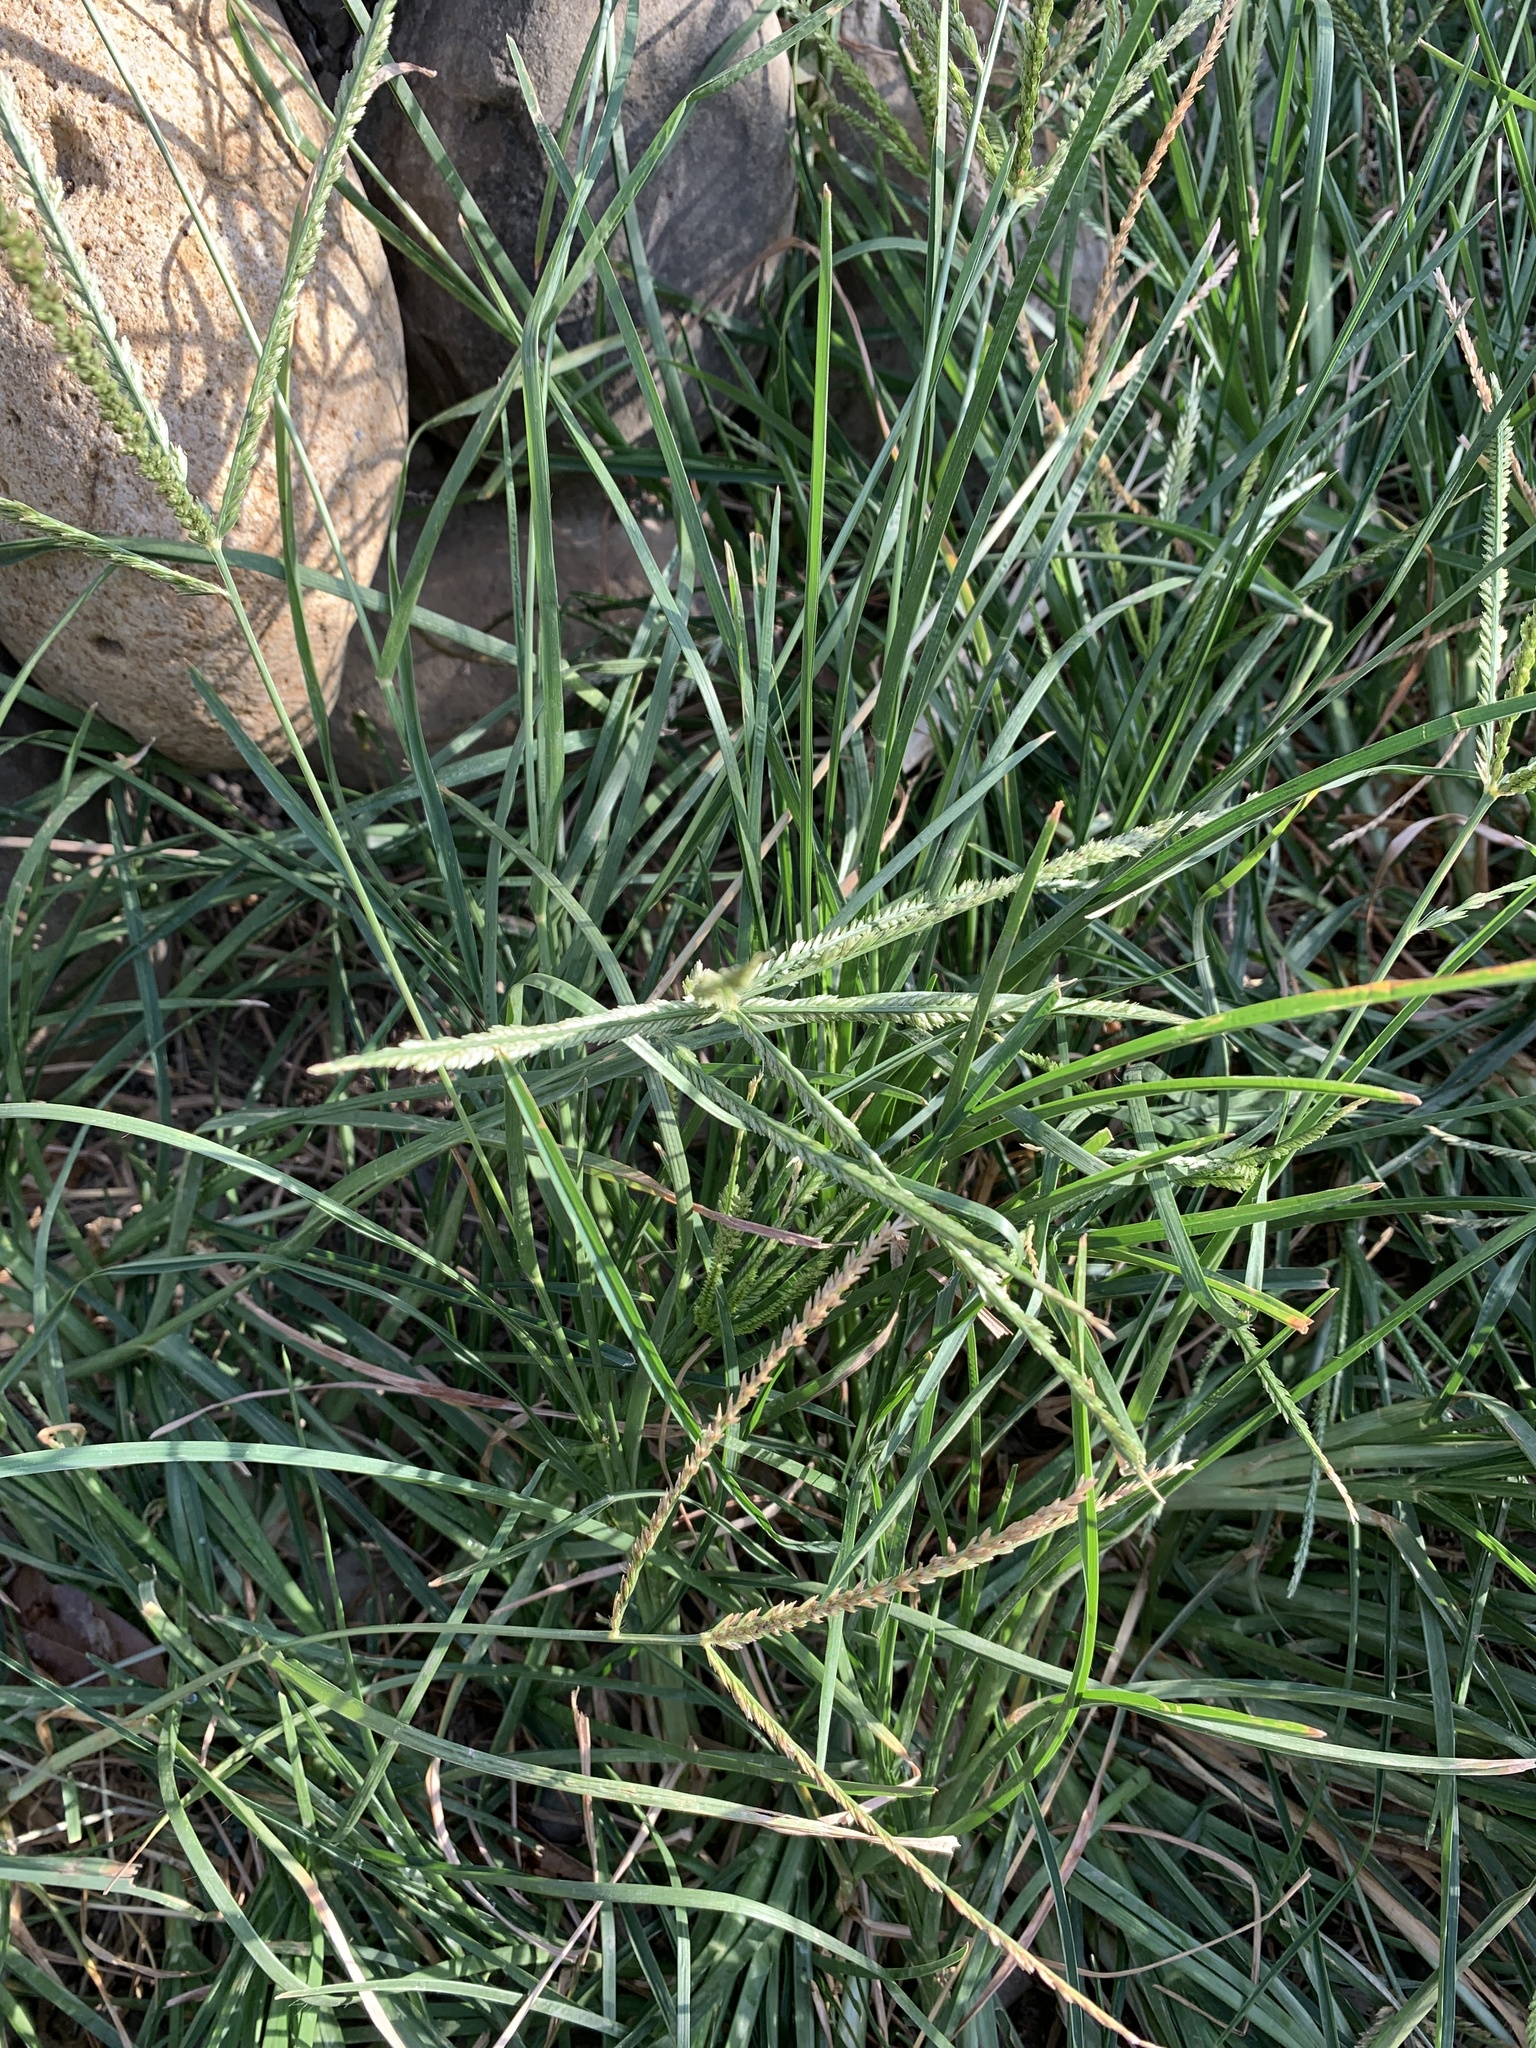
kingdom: Plantae
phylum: Tracheophyta
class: Liliopsida
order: Poales
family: Poaceae
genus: Eleusine
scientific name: Eleusine indica
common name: Yard-grass
